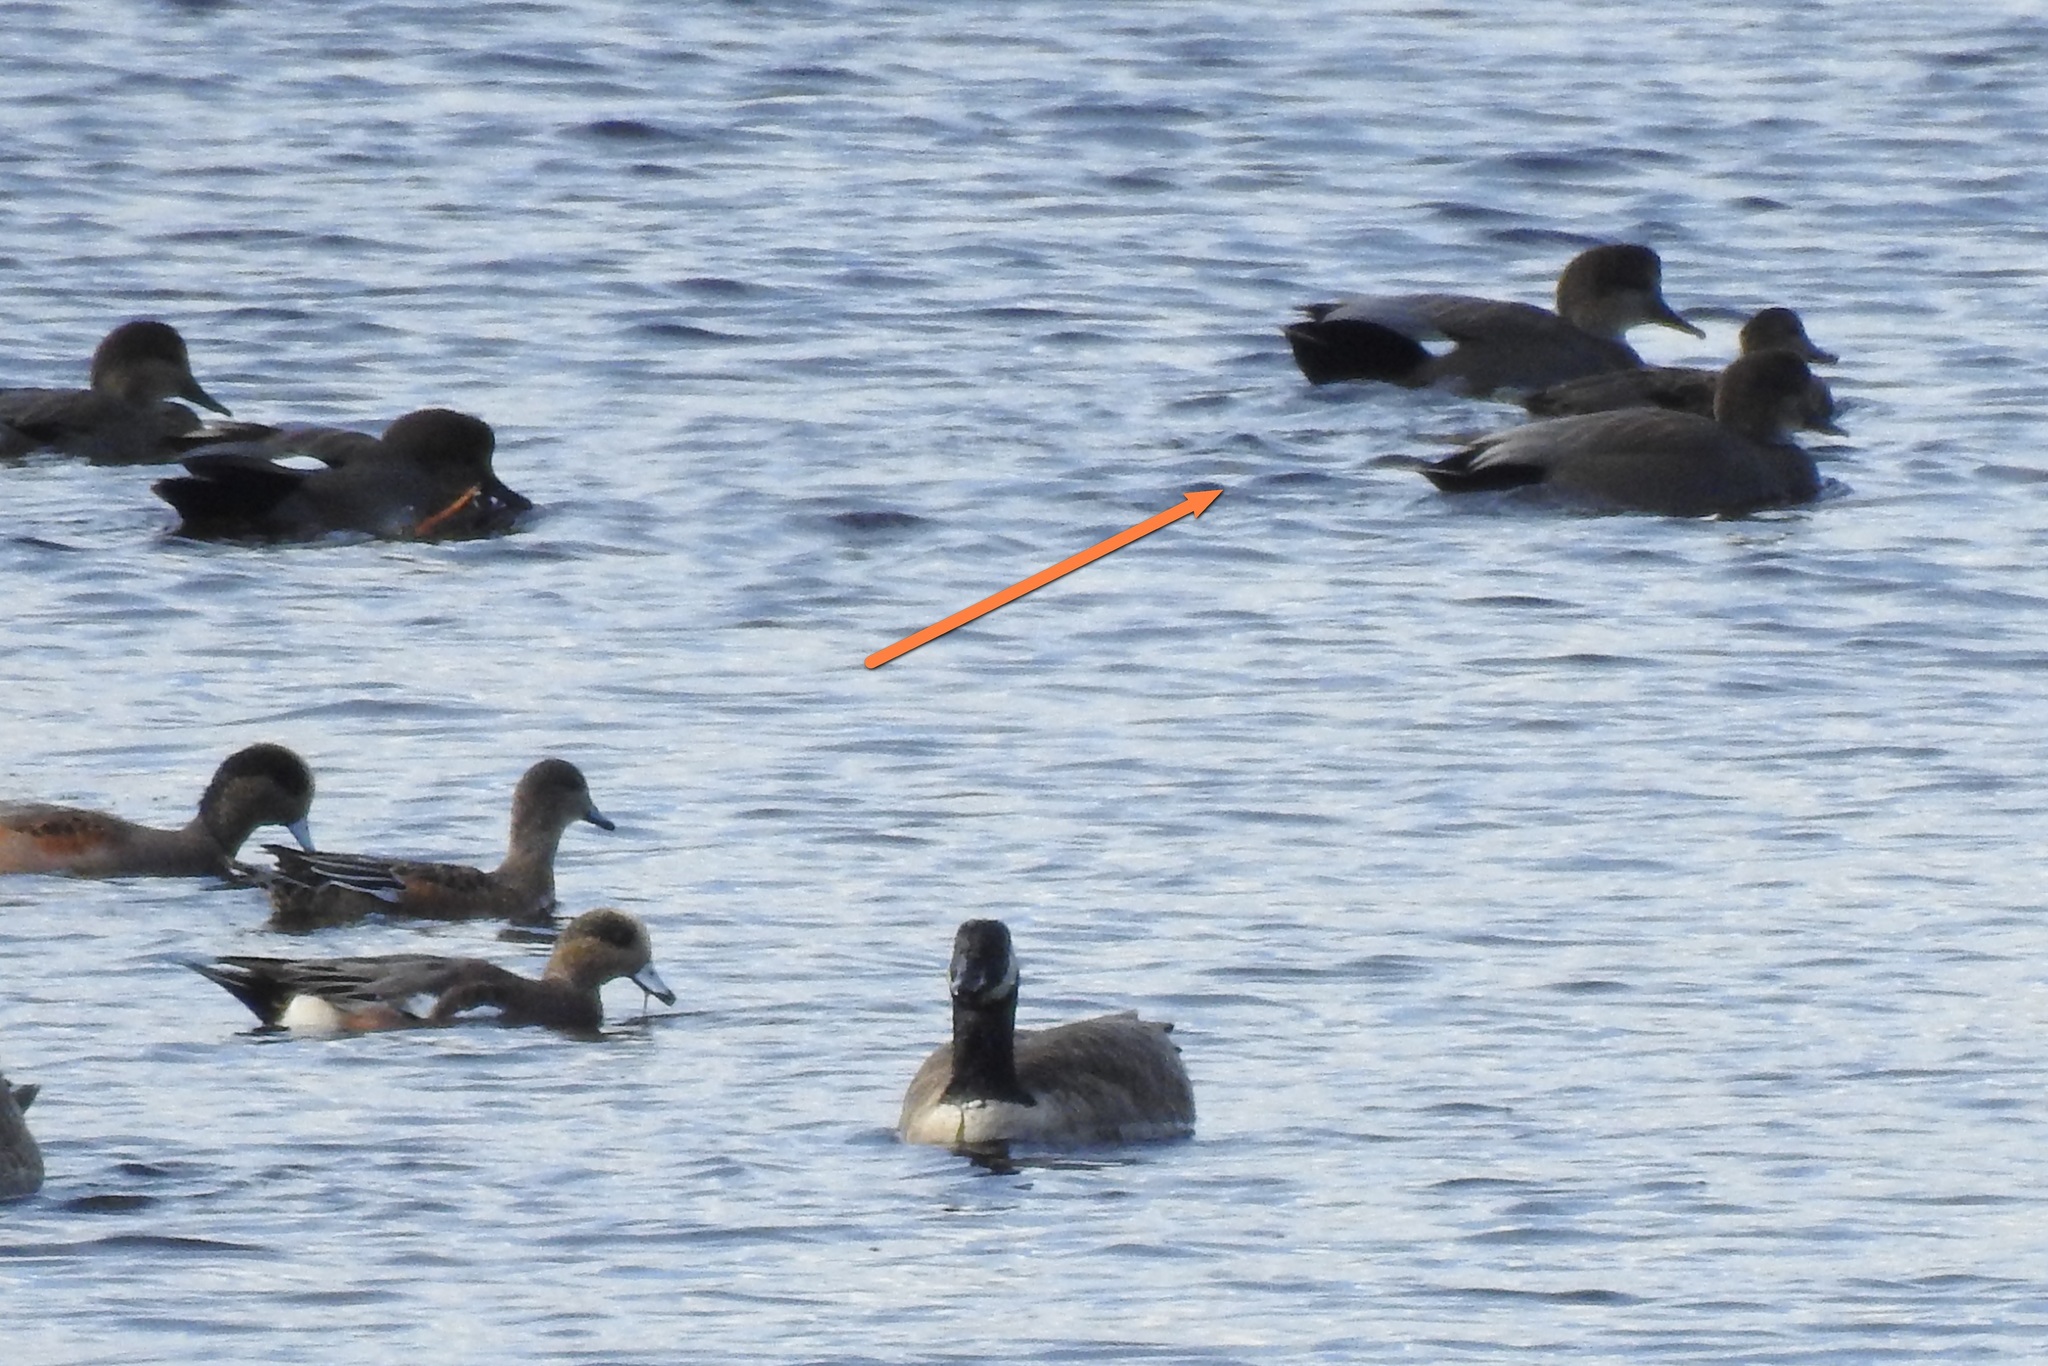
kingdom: Animalia
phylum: Chordata
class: Aves
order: Anseriformes
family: Anatidae
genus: Mareca
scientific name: Mareca strepera
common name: Gadwall
